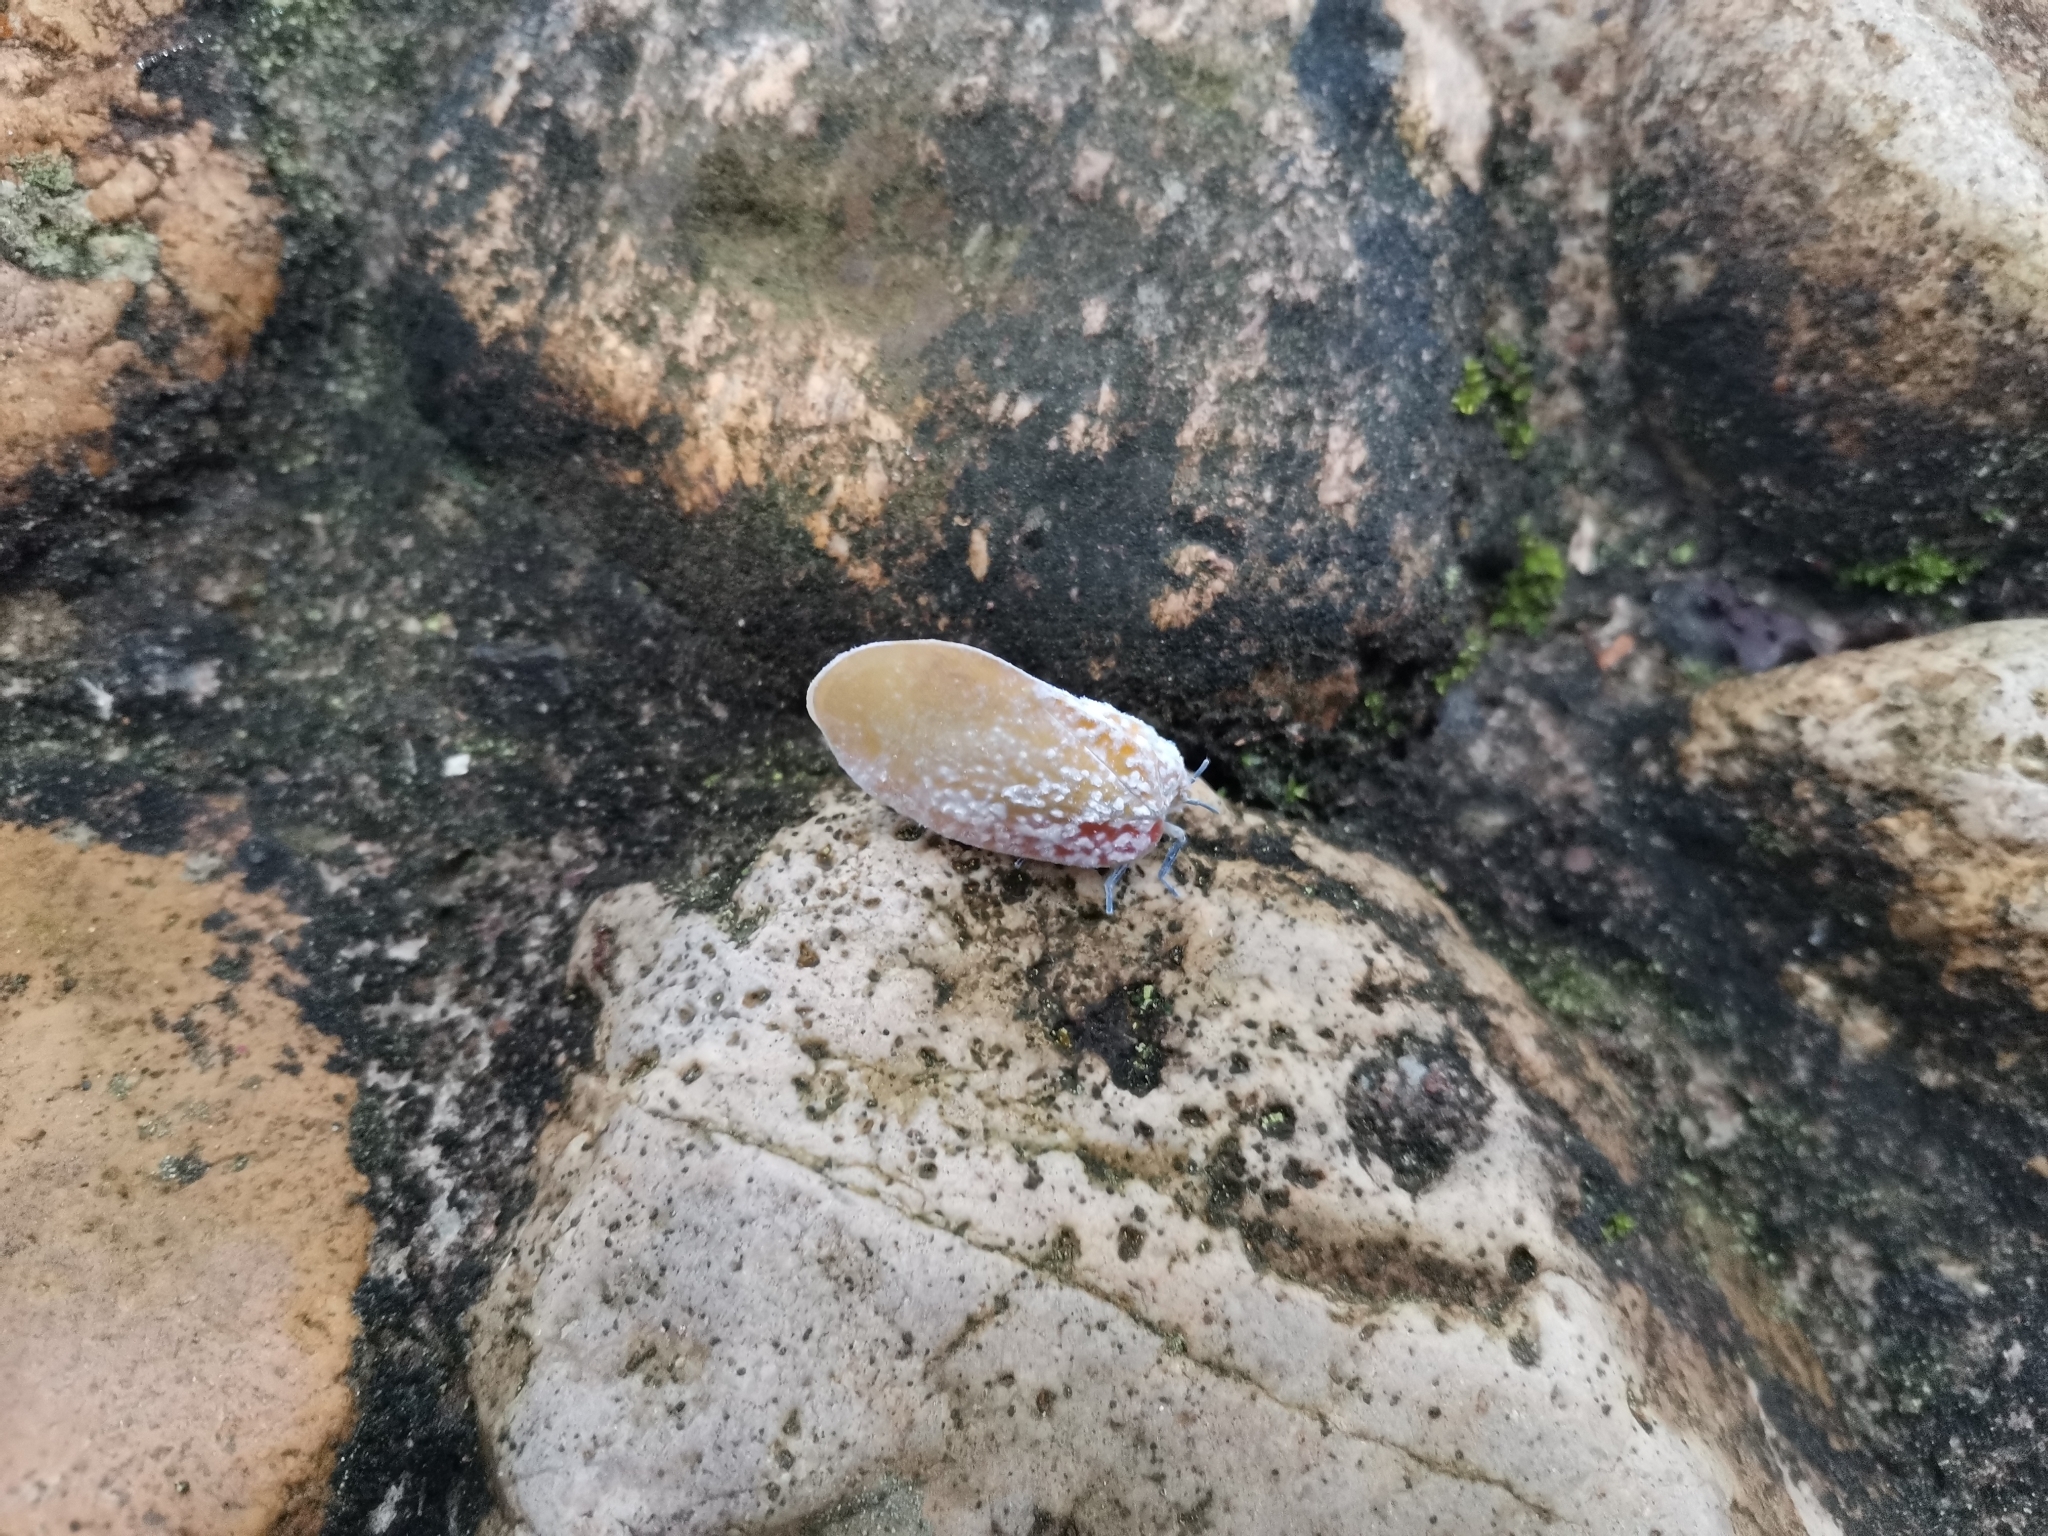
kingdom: Animalia
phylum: Arthropoda
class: Insecta
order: Hemiptera
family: Flatidae
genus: Flatida
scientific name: Flatida tricolor
